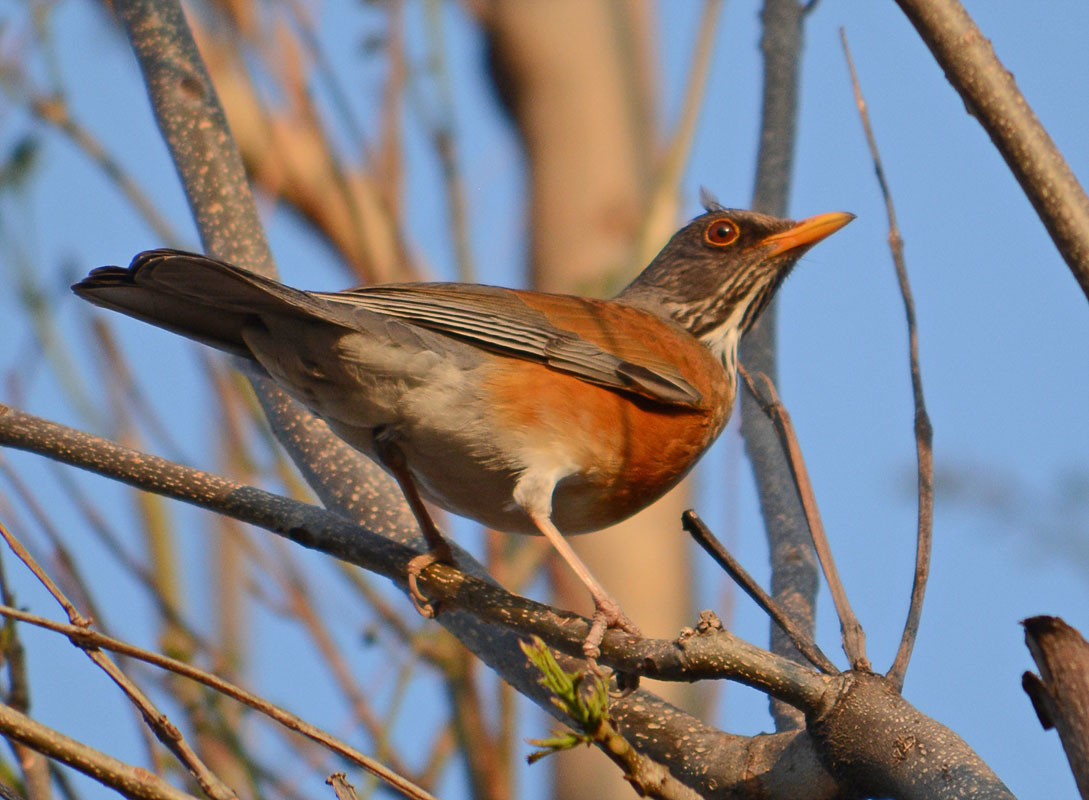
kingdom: Animalia
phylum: Chordata
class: Aves
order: Passeriformes
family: Turdidae
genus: Turdus
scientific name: Turdus rufopalliatus
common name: Rufous-backed robin
